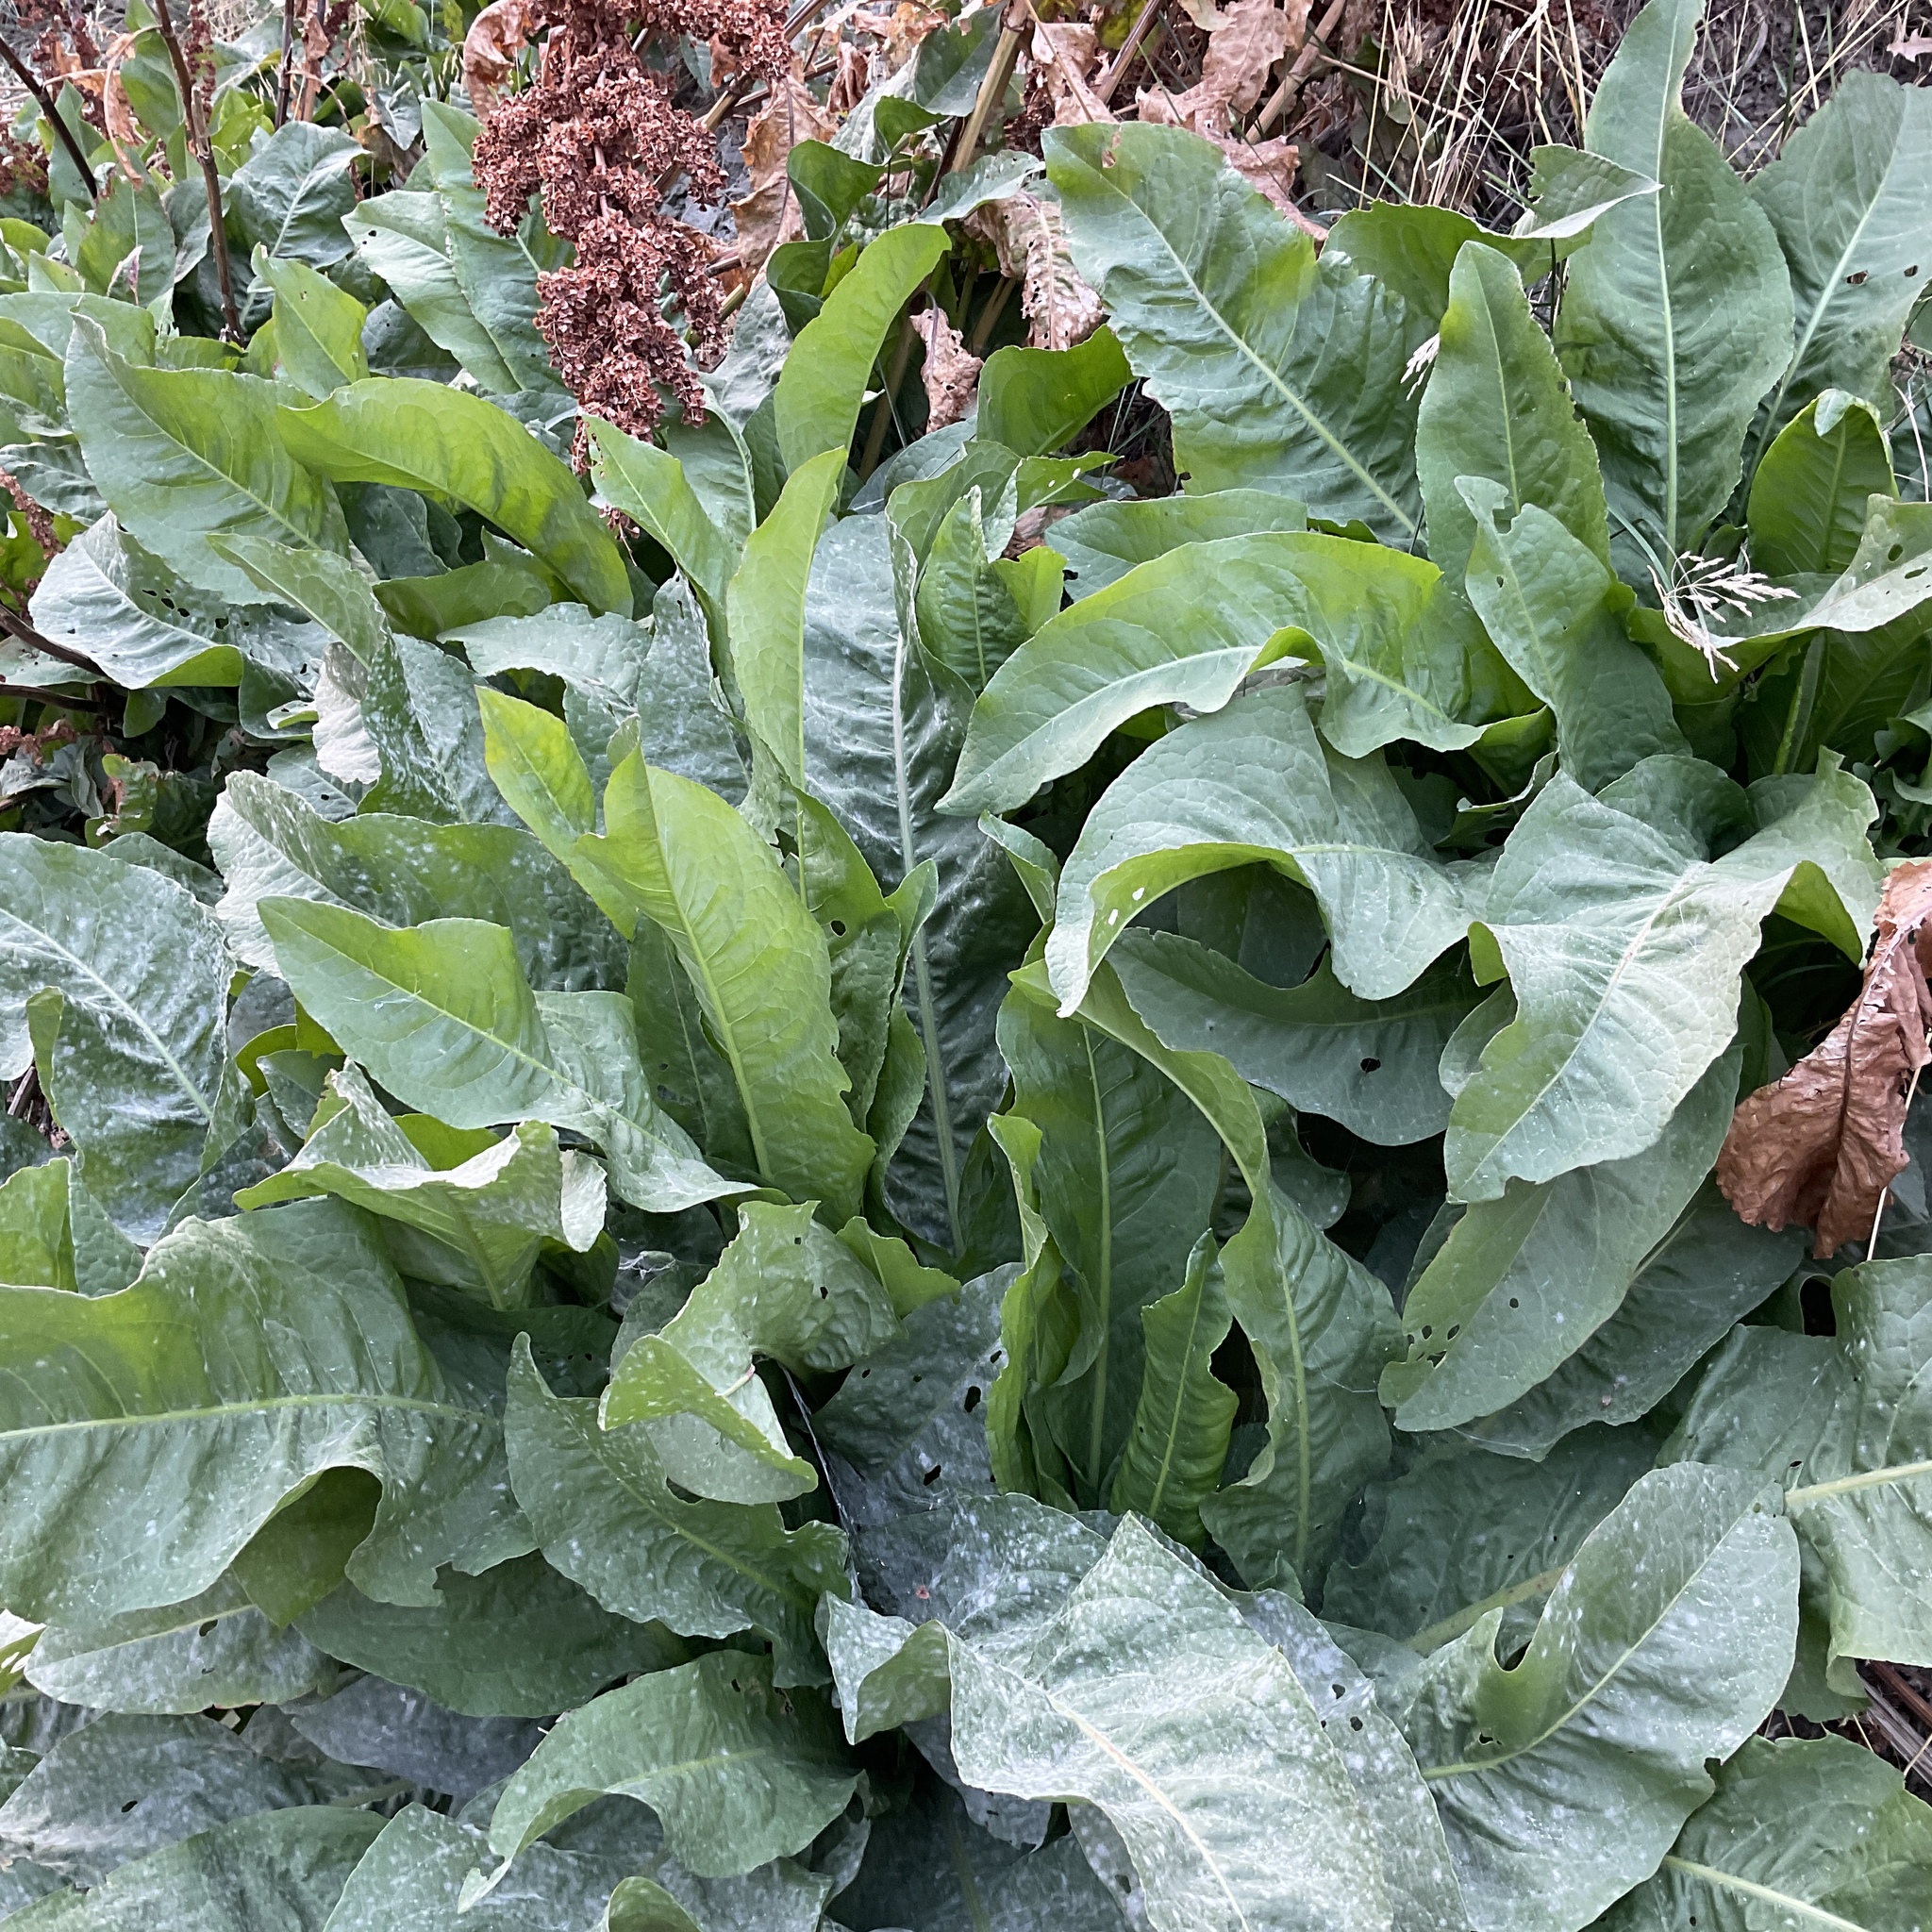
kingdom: Plantae
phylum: Tracheophyta
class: Magnoliopsida
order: Caryophyllales
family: Polygonaceae
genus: Rumex
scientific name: Rumex crispus
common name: Curled dock
